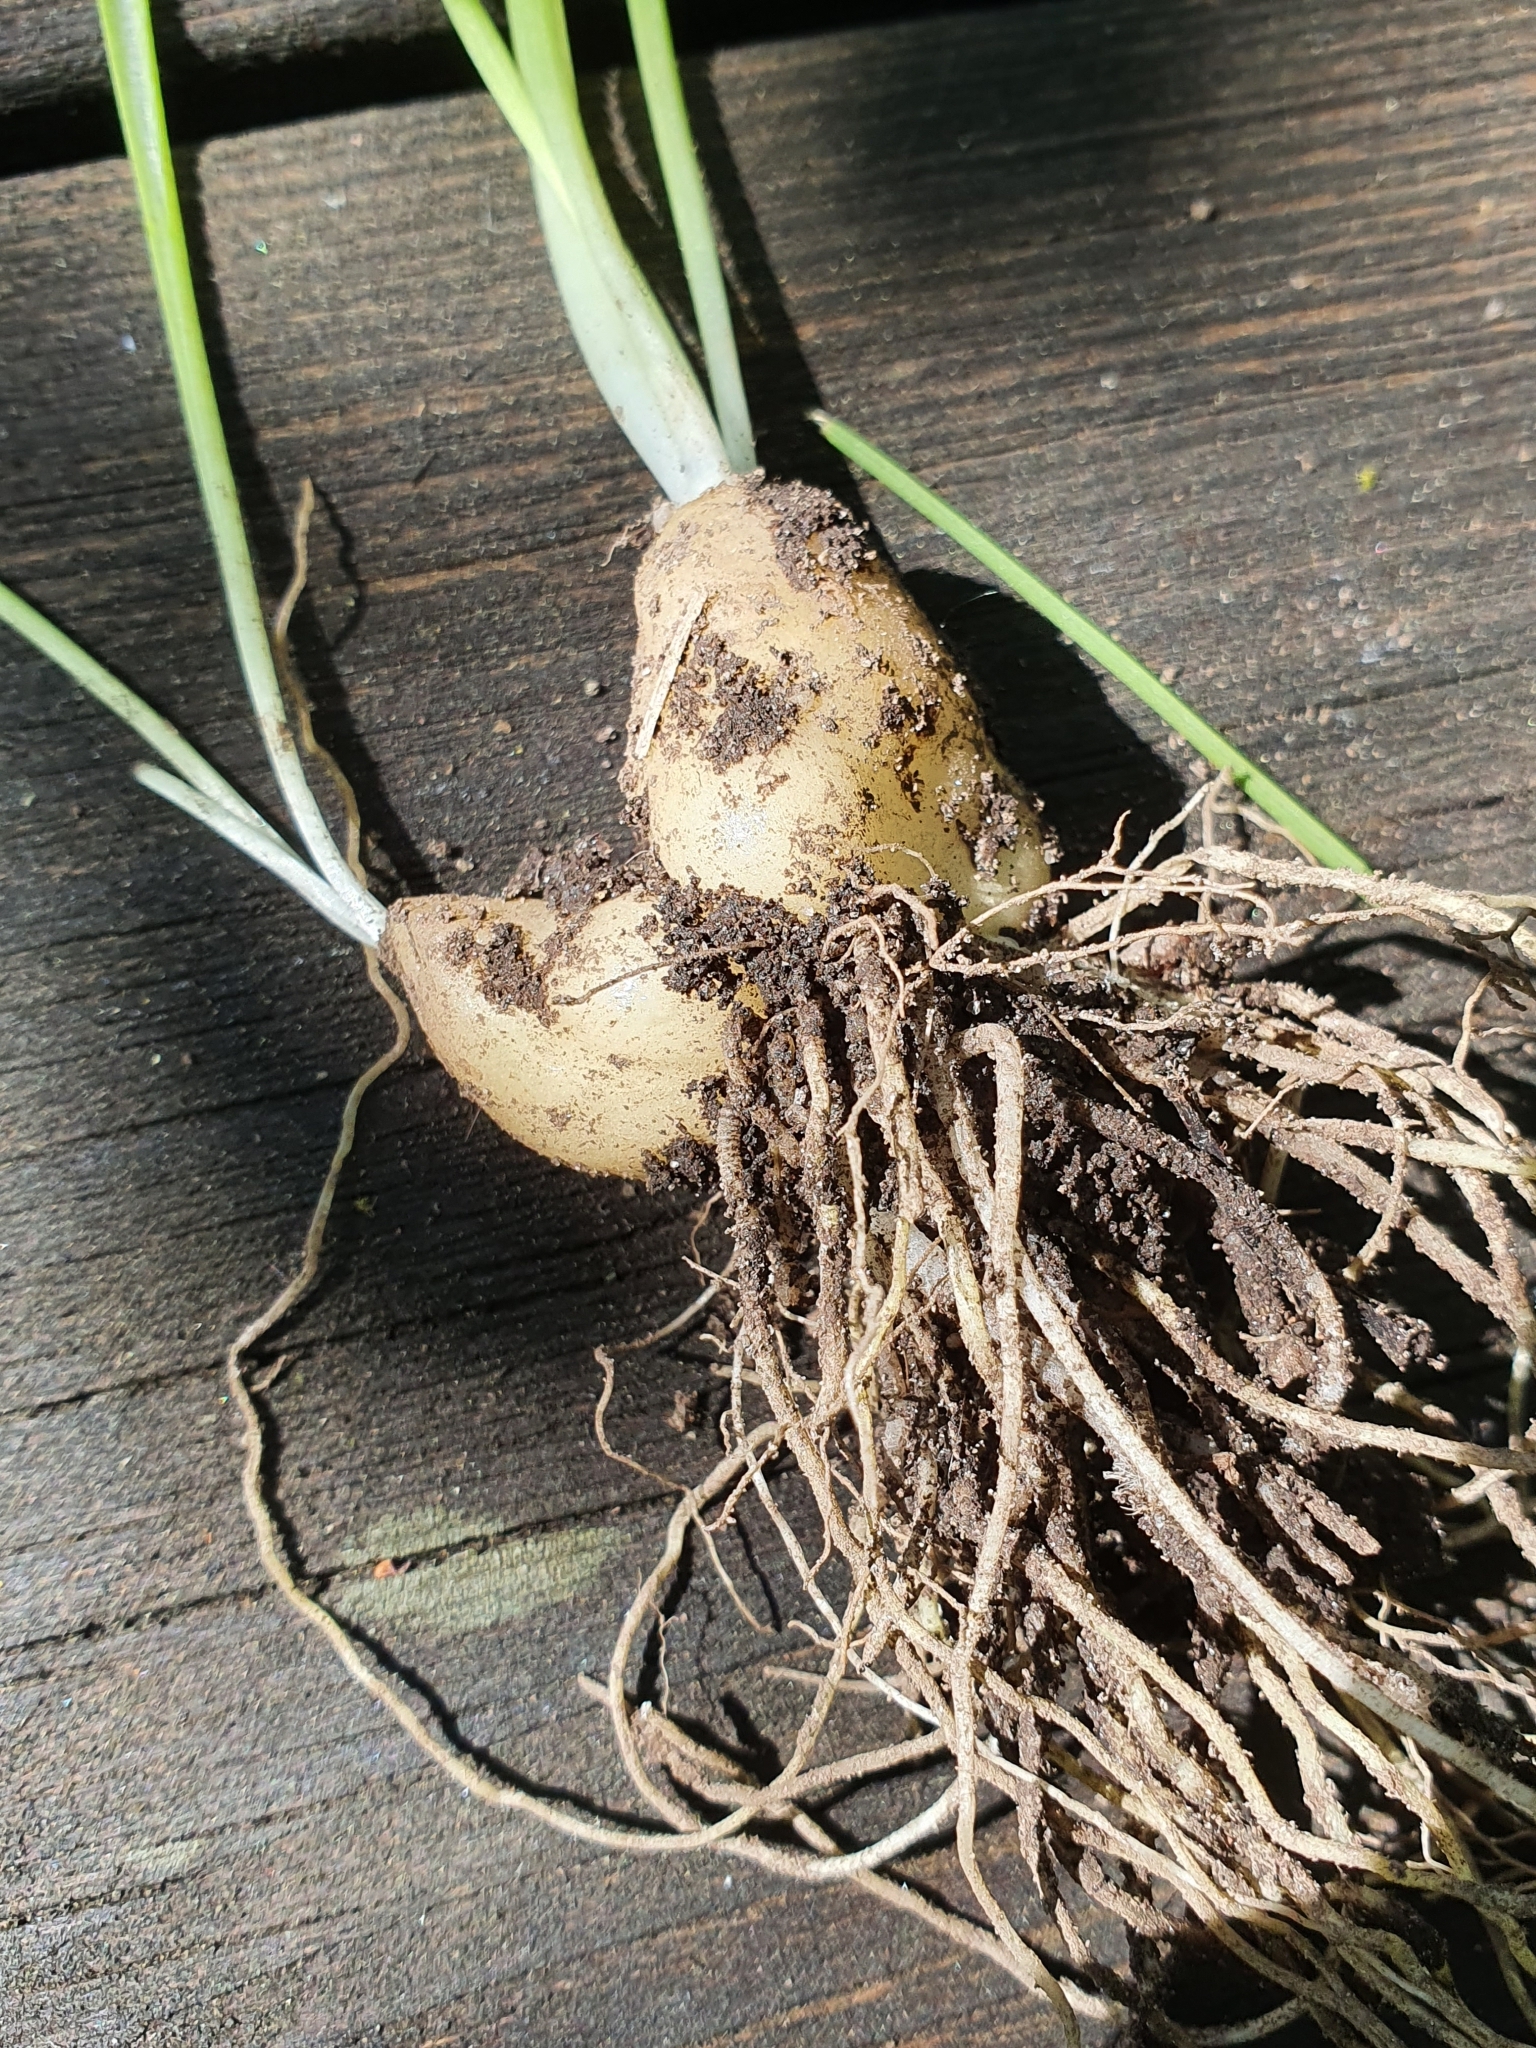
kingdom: Plantae
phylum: Tracheophyta
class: Liliopsida
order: Asparagales
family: Asparagaceae
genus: Ornithogalum
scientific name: Ornithogalum umbellatum
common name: Garden star-of-bethlehem
